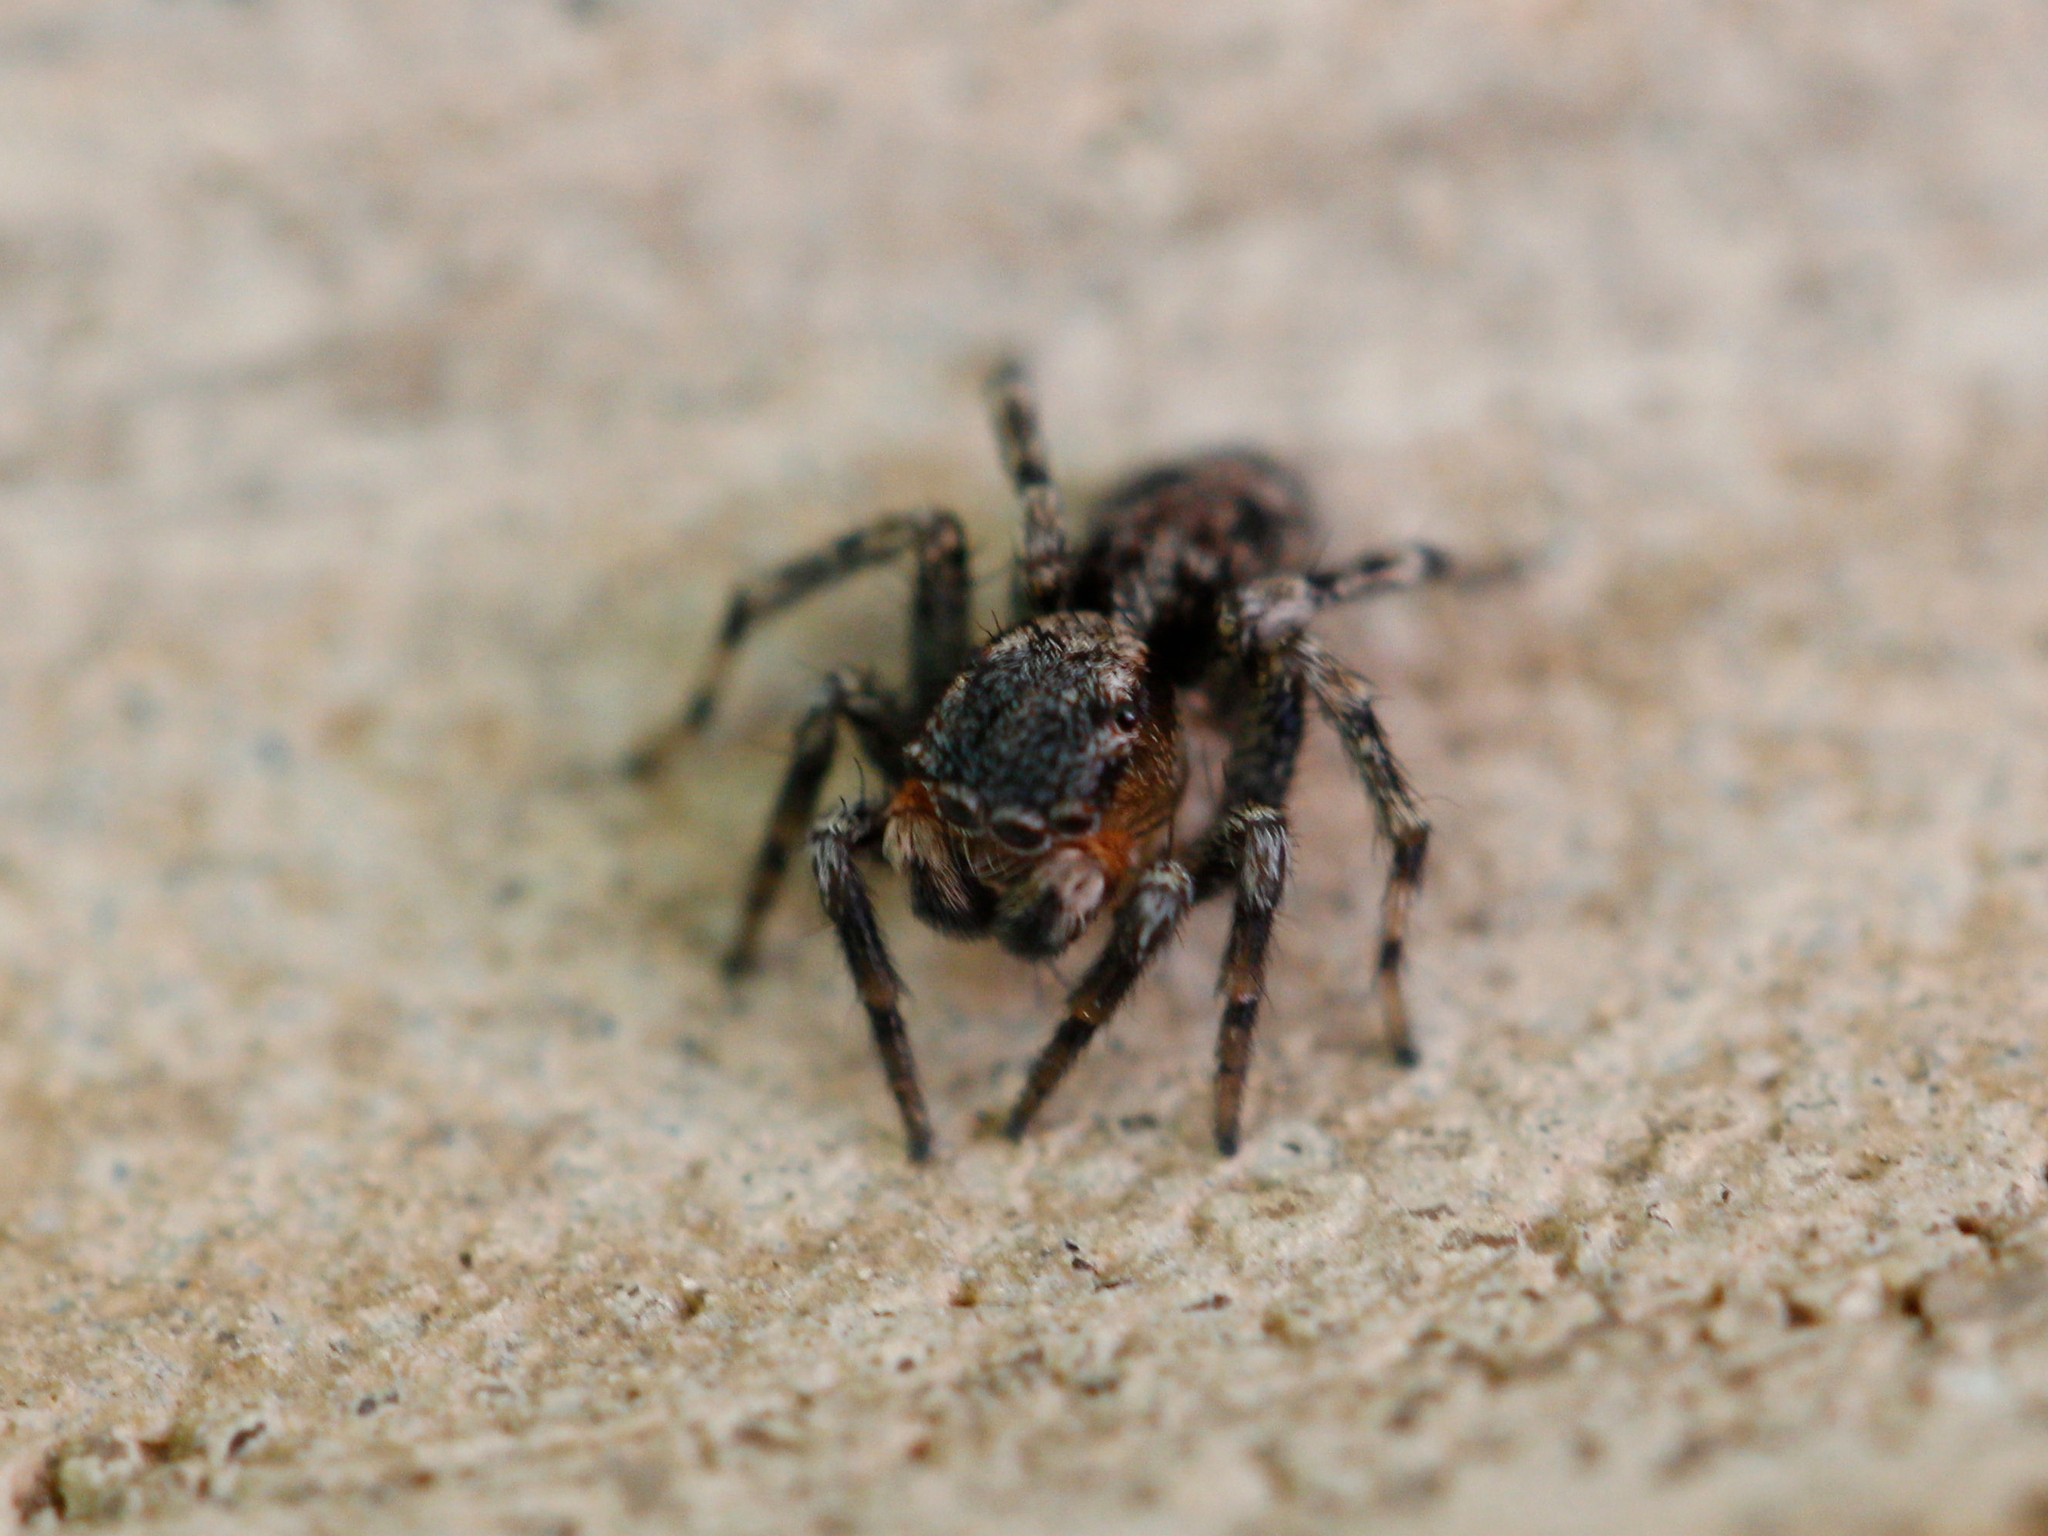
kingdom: Animalia
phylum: Arthropoda
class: Arachnida
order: Araneae
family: Salticidae
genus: Naphrys
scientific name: Naphrys pulex
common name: Flea jumping spider
